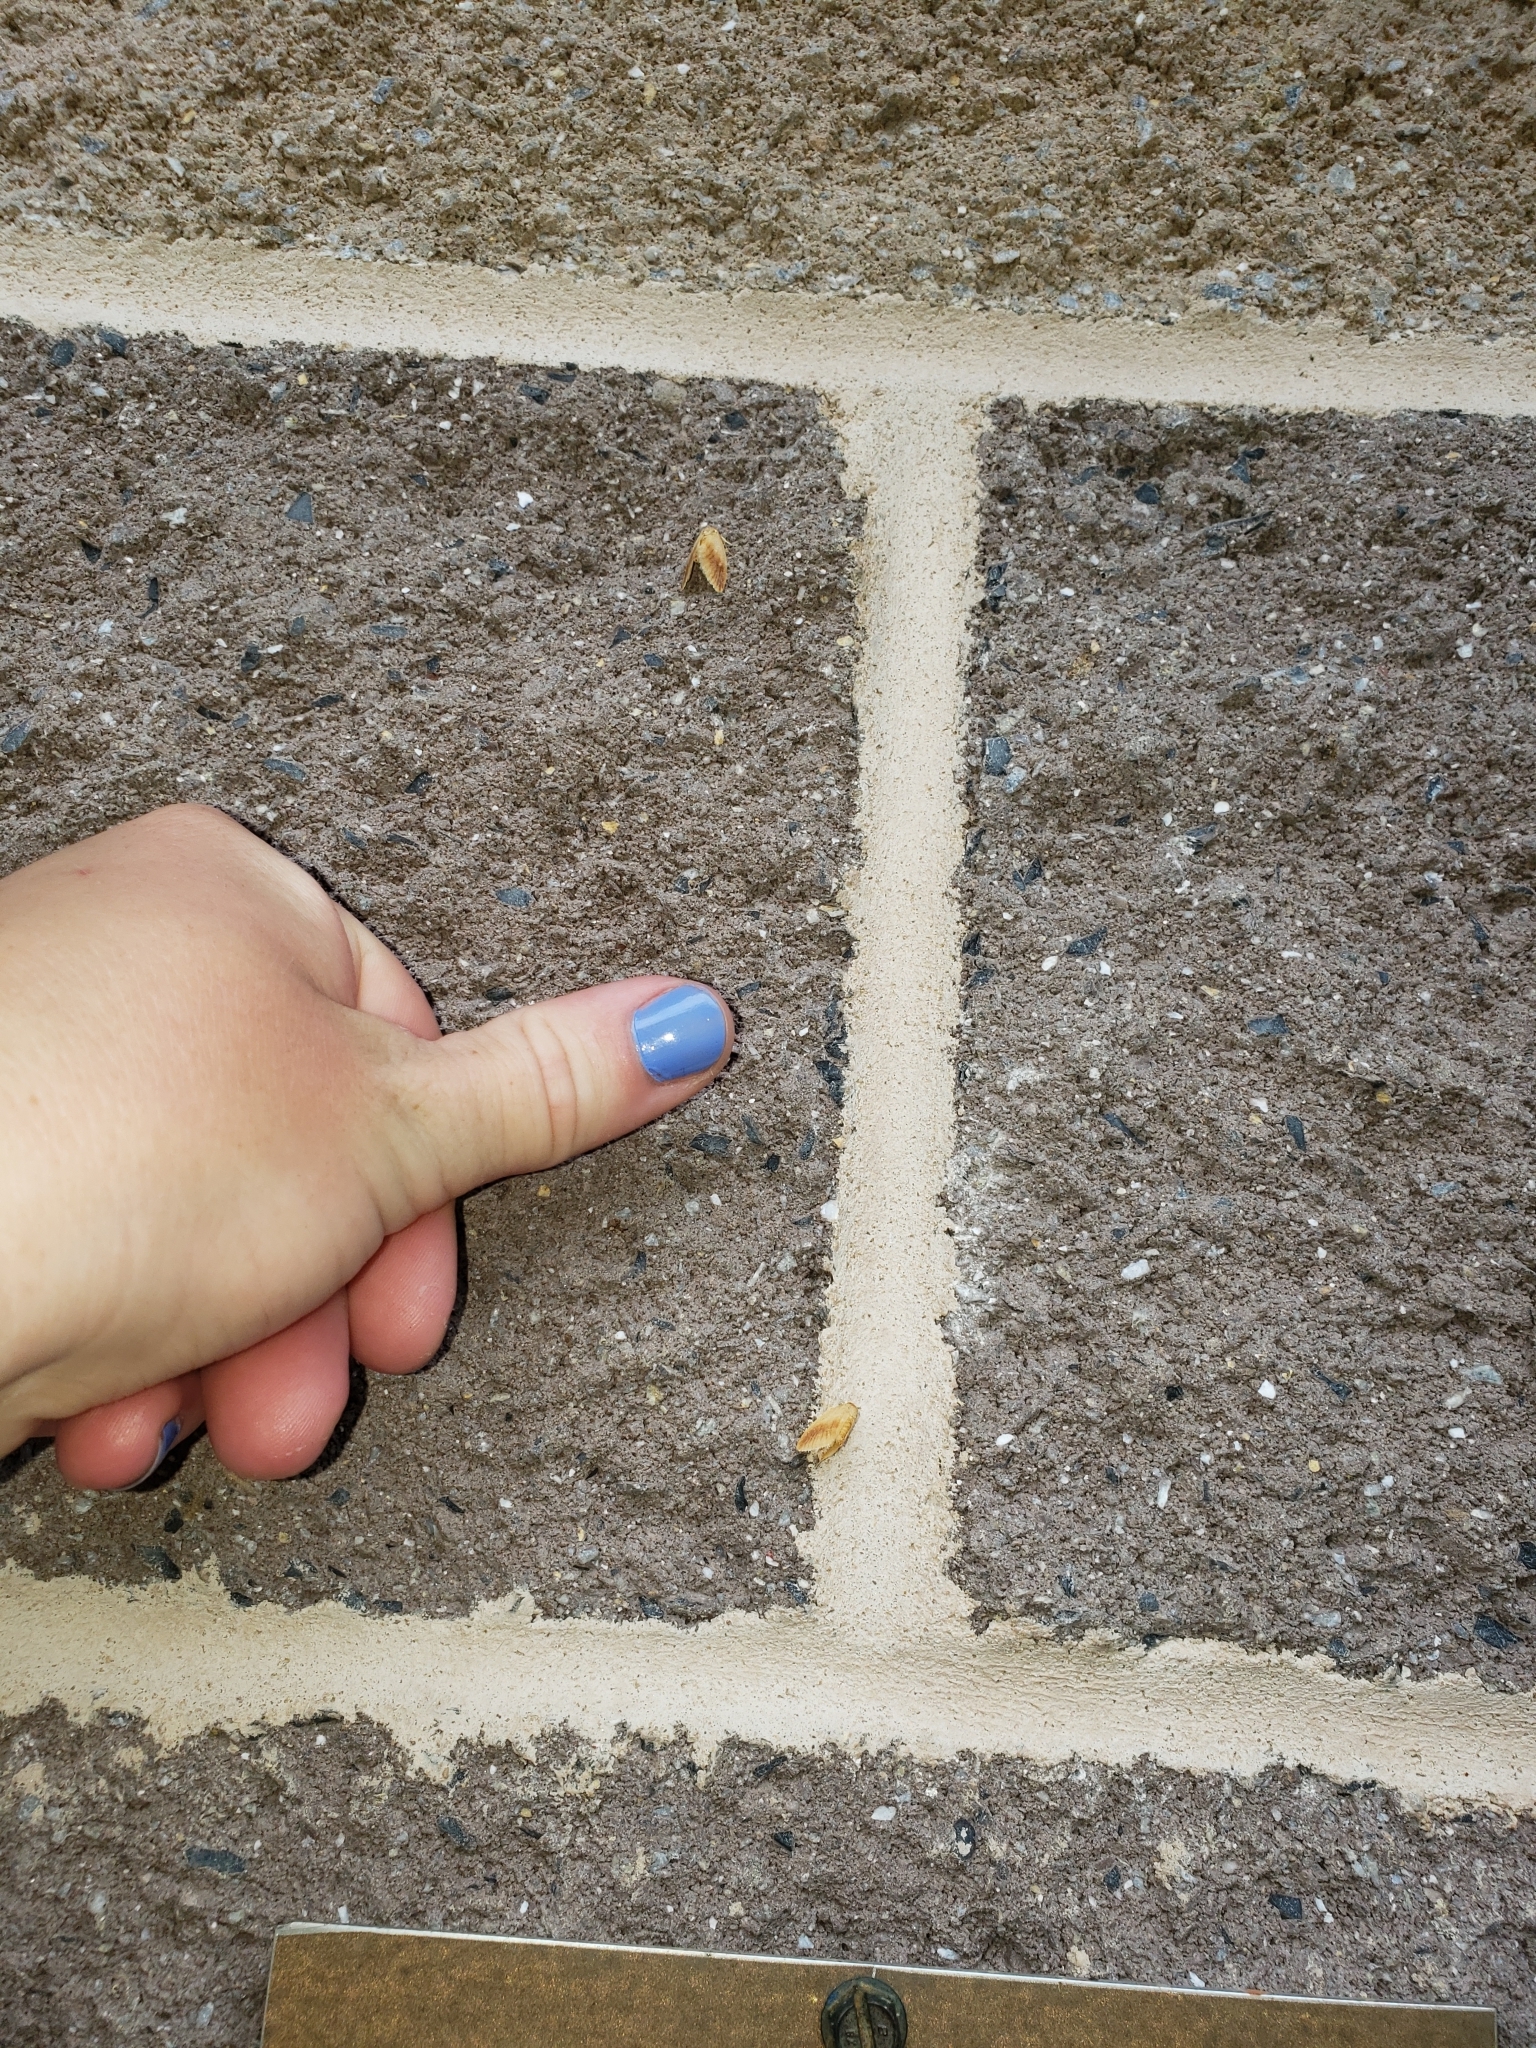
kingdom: Animalia
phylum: Arthropoda
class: Insecta
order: Lepidoptera
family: Limacodidae
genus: Tortricidia
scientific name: Tortricidia testacea
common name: Early button slug moth
